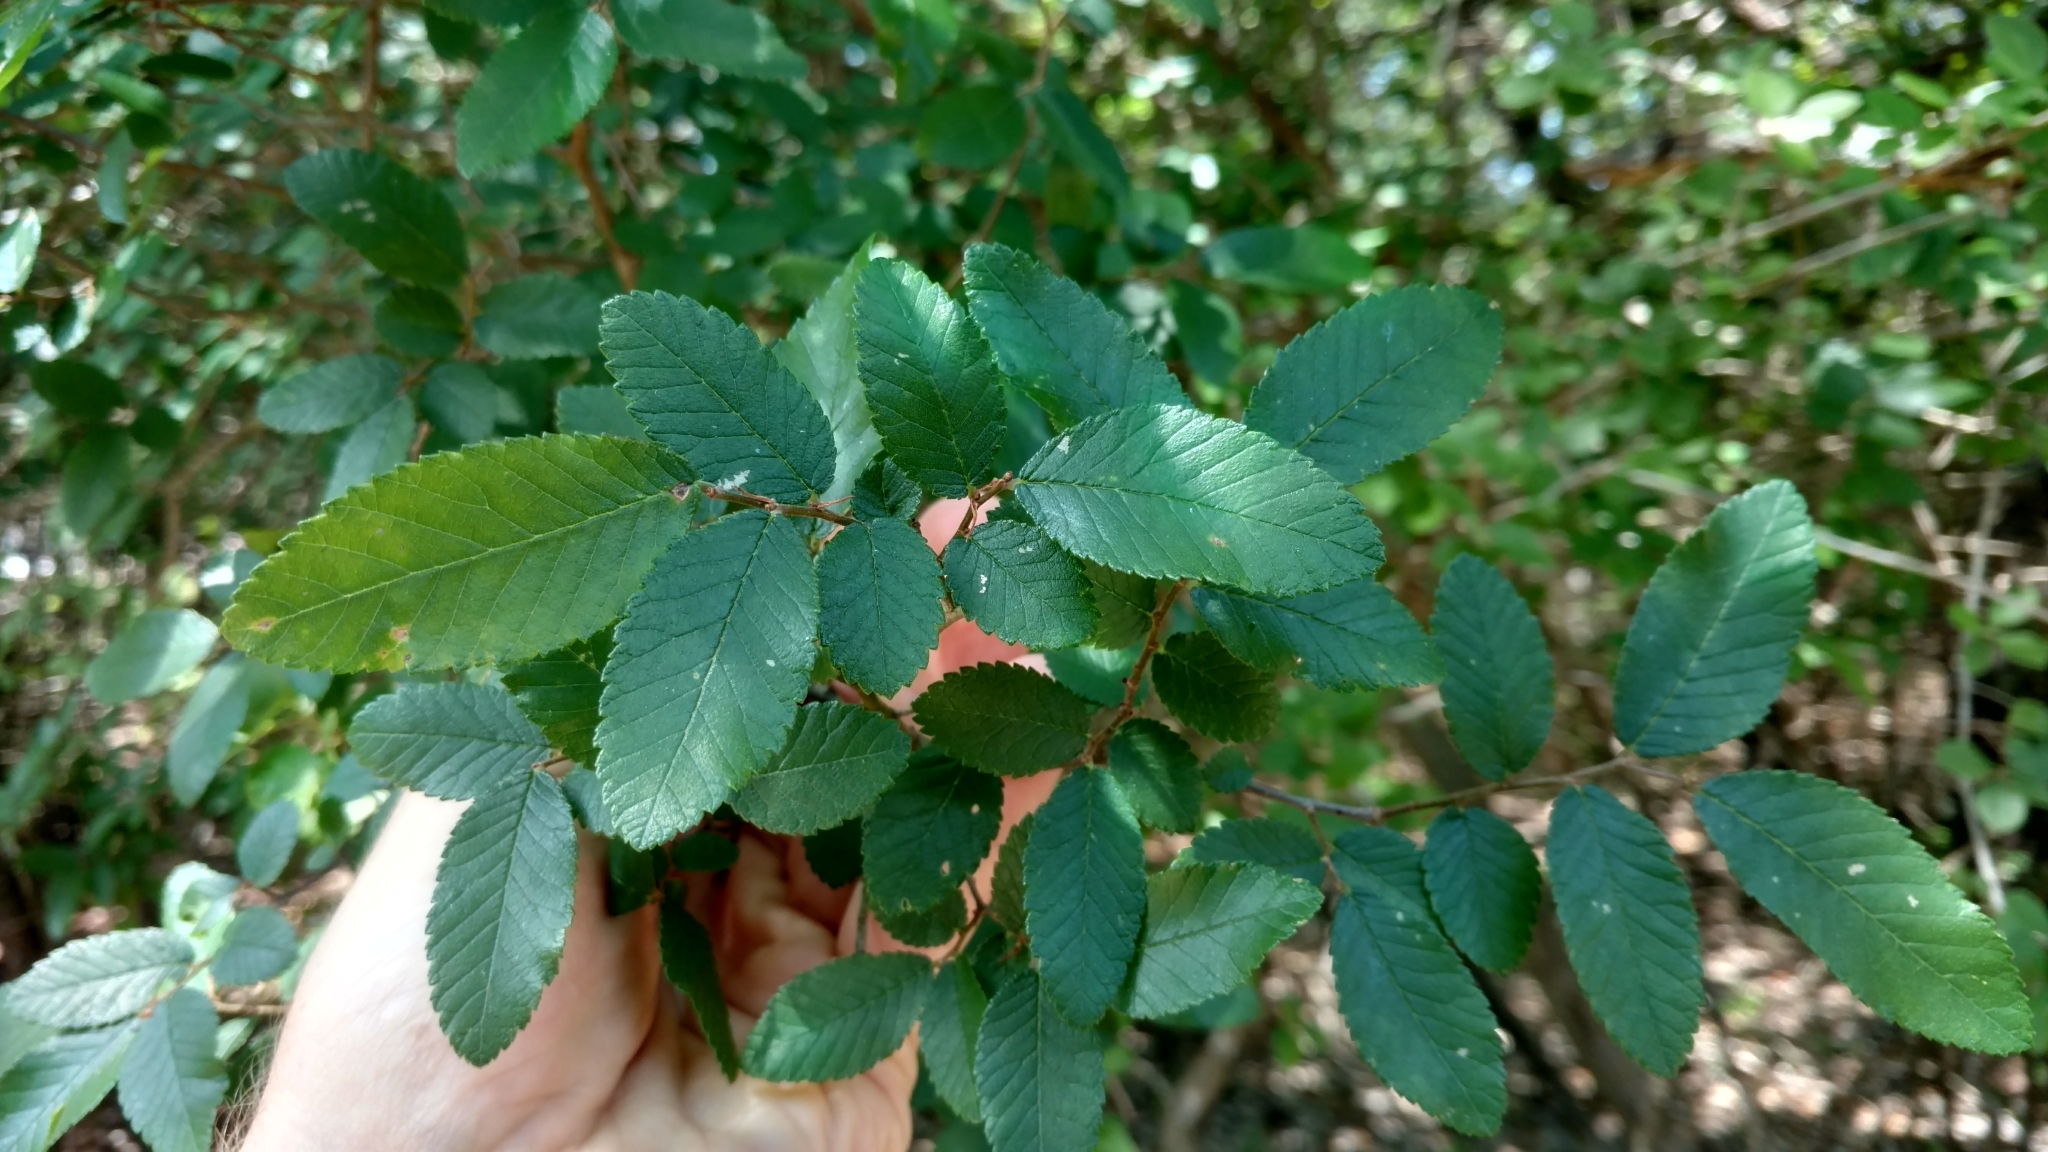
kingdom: Plantae
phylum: Tracheophyta
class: Magnoliopsida
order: Rosales
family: Ulmaceae
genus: Ulmus
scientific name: Ulmus crassifolia
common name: Basket elm
